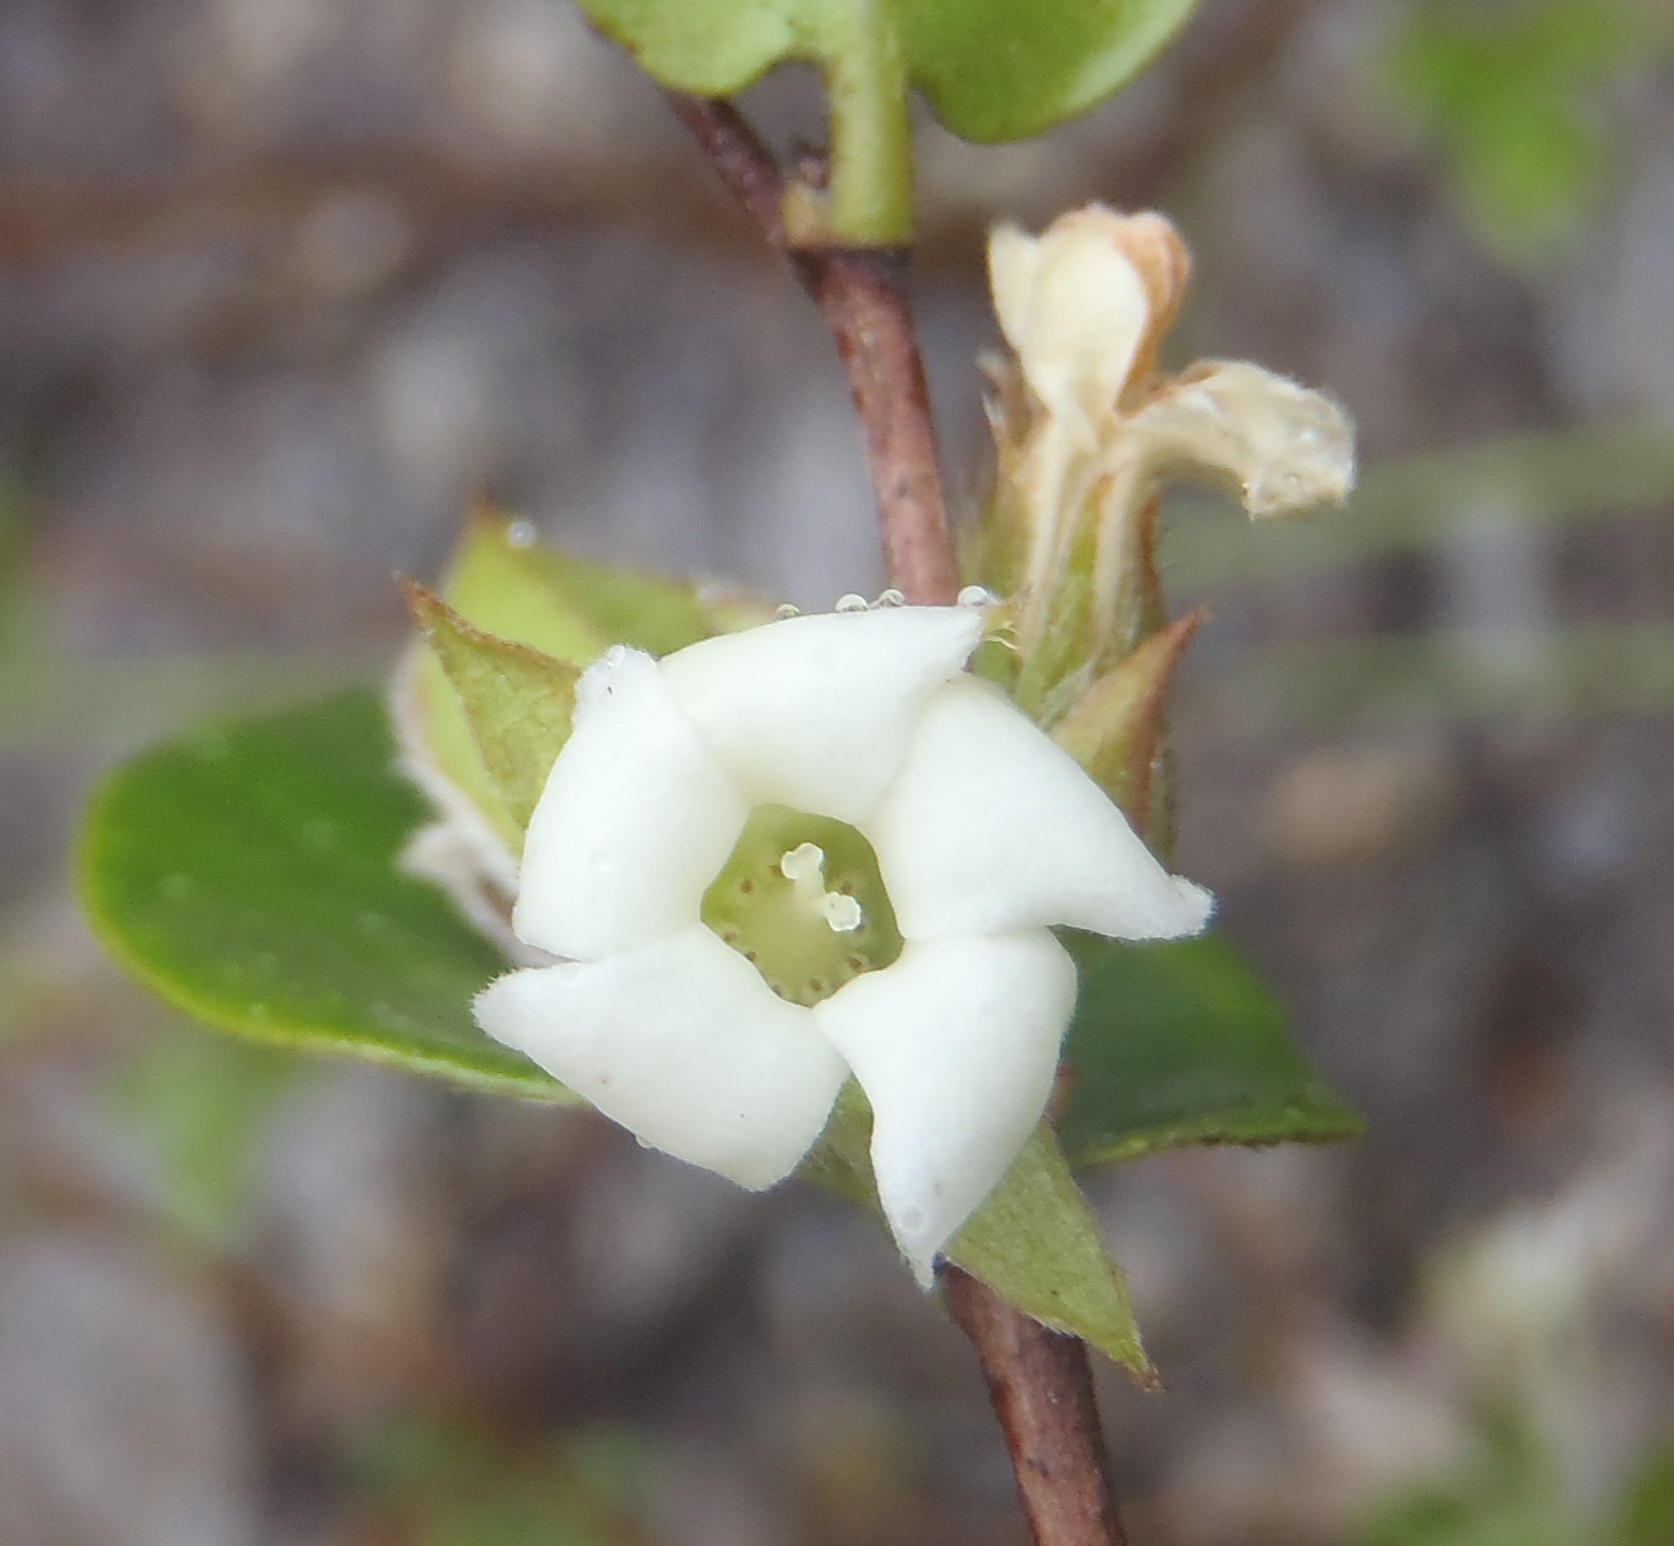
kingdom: Plantae
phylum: Tracheophyta
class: Magnoliopsida
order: Ericales
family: Ebenaceae
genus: Diospyros
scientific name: Diospyros whyteana
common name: Bladder-nut
